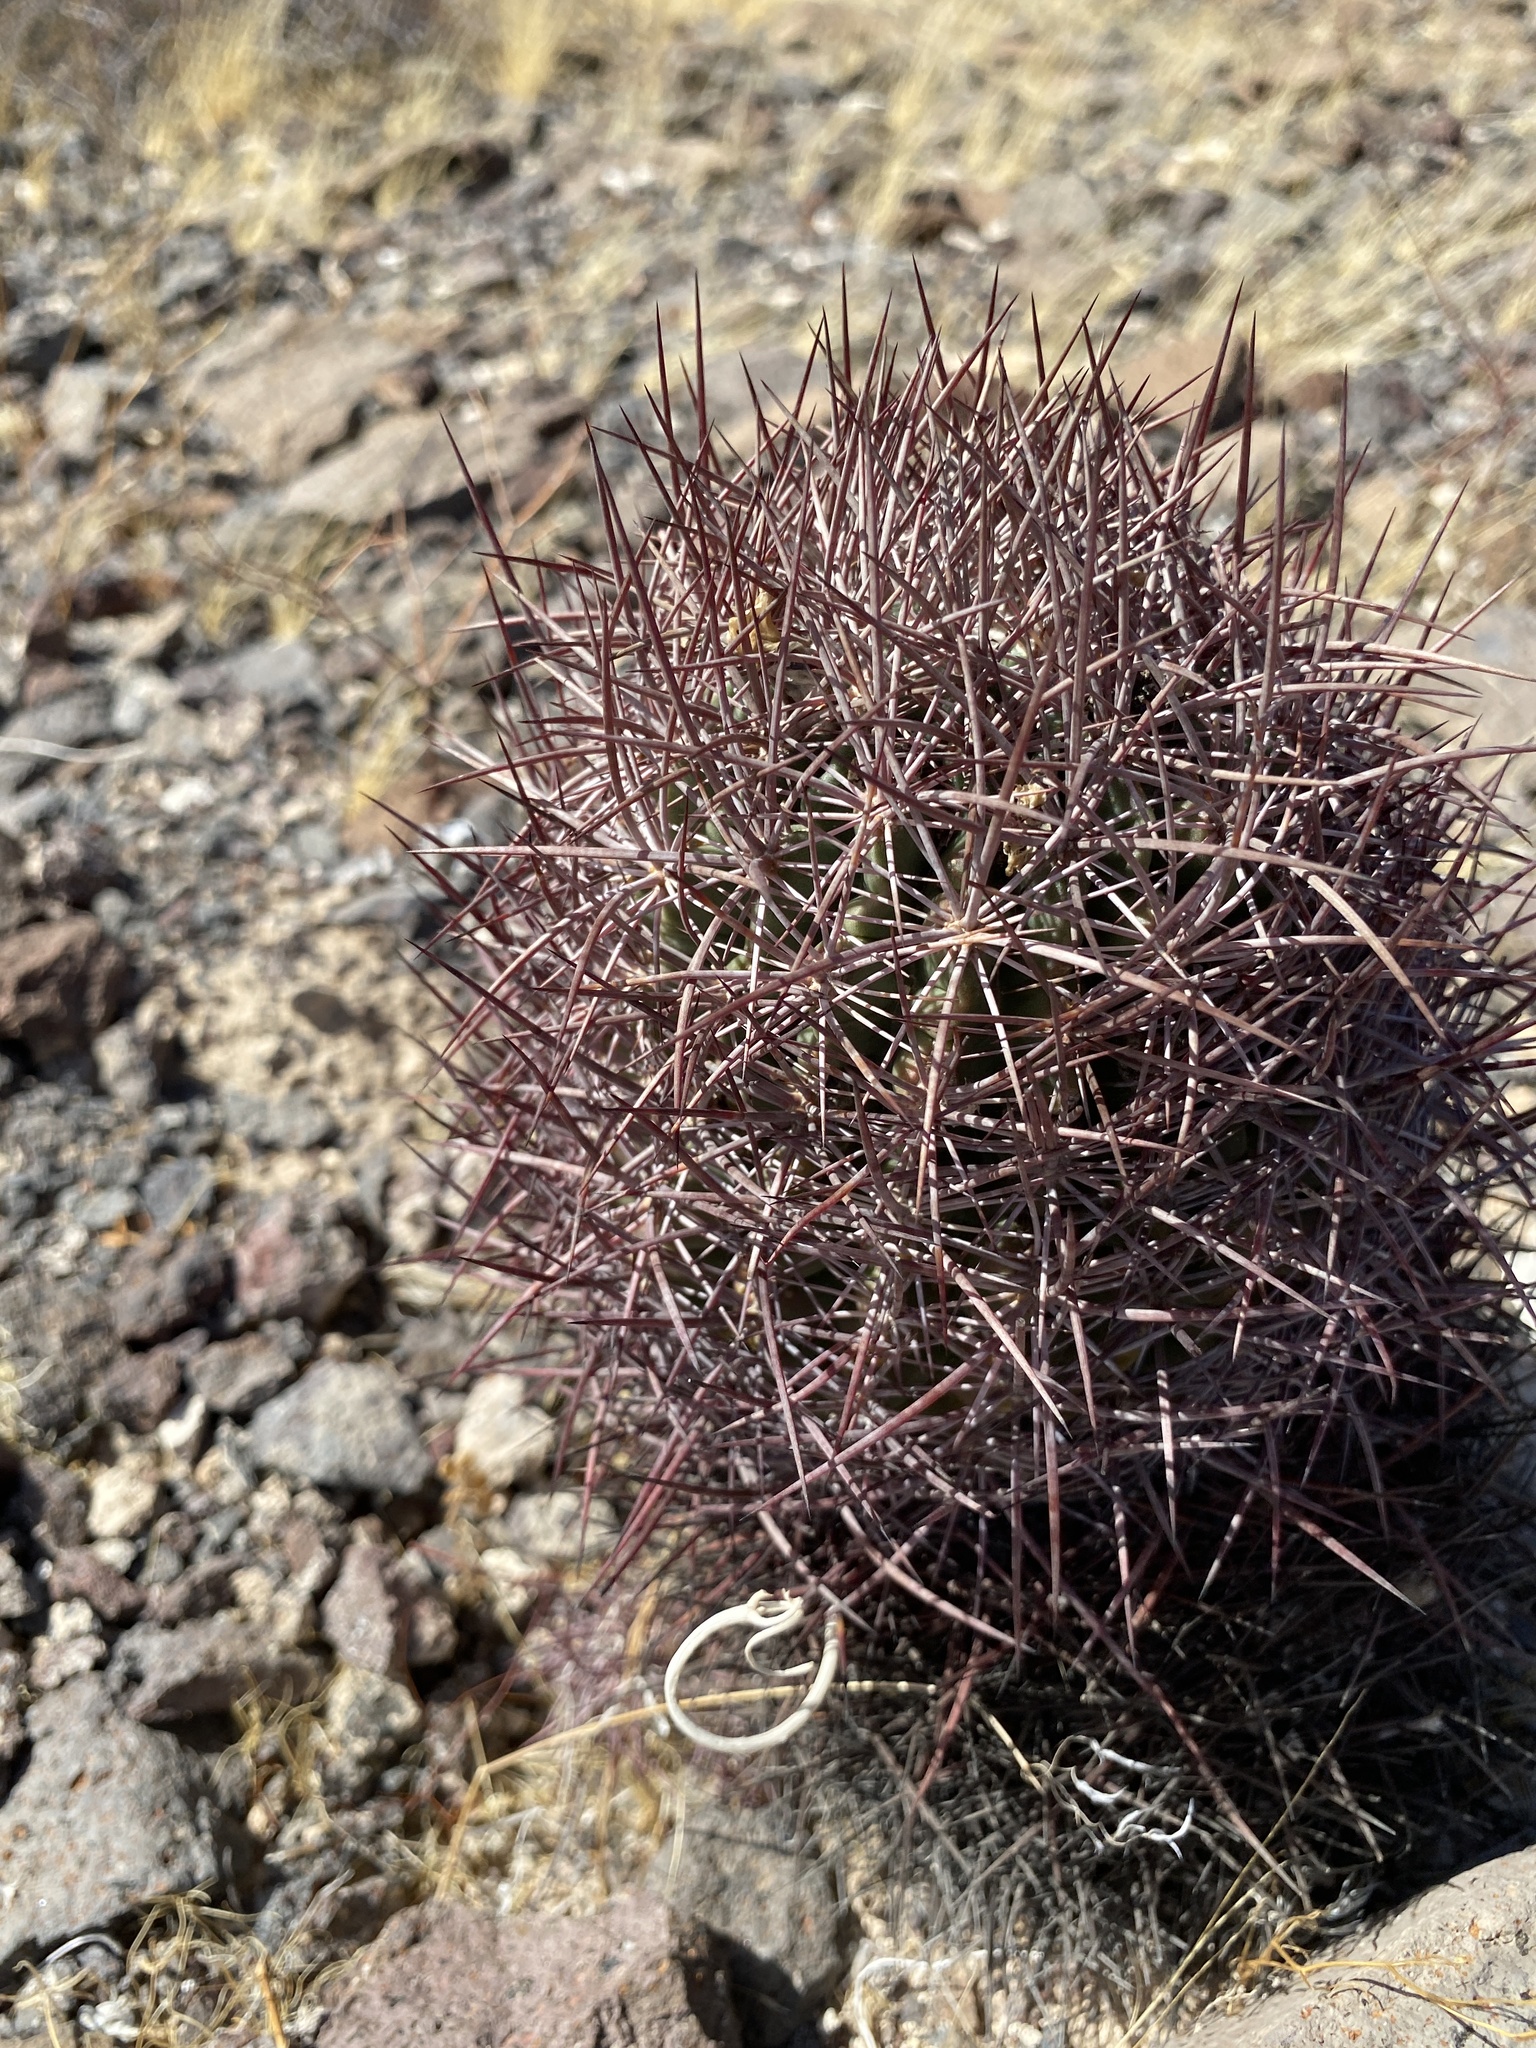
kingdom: Plantae
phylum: Tracheophyta
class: Magnoliopsida
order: Caryophyllales
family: Cactaceae
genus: Sclerocactus
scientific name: Sclerocactus johnsonii
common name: Eight-spine fishhook cactus
